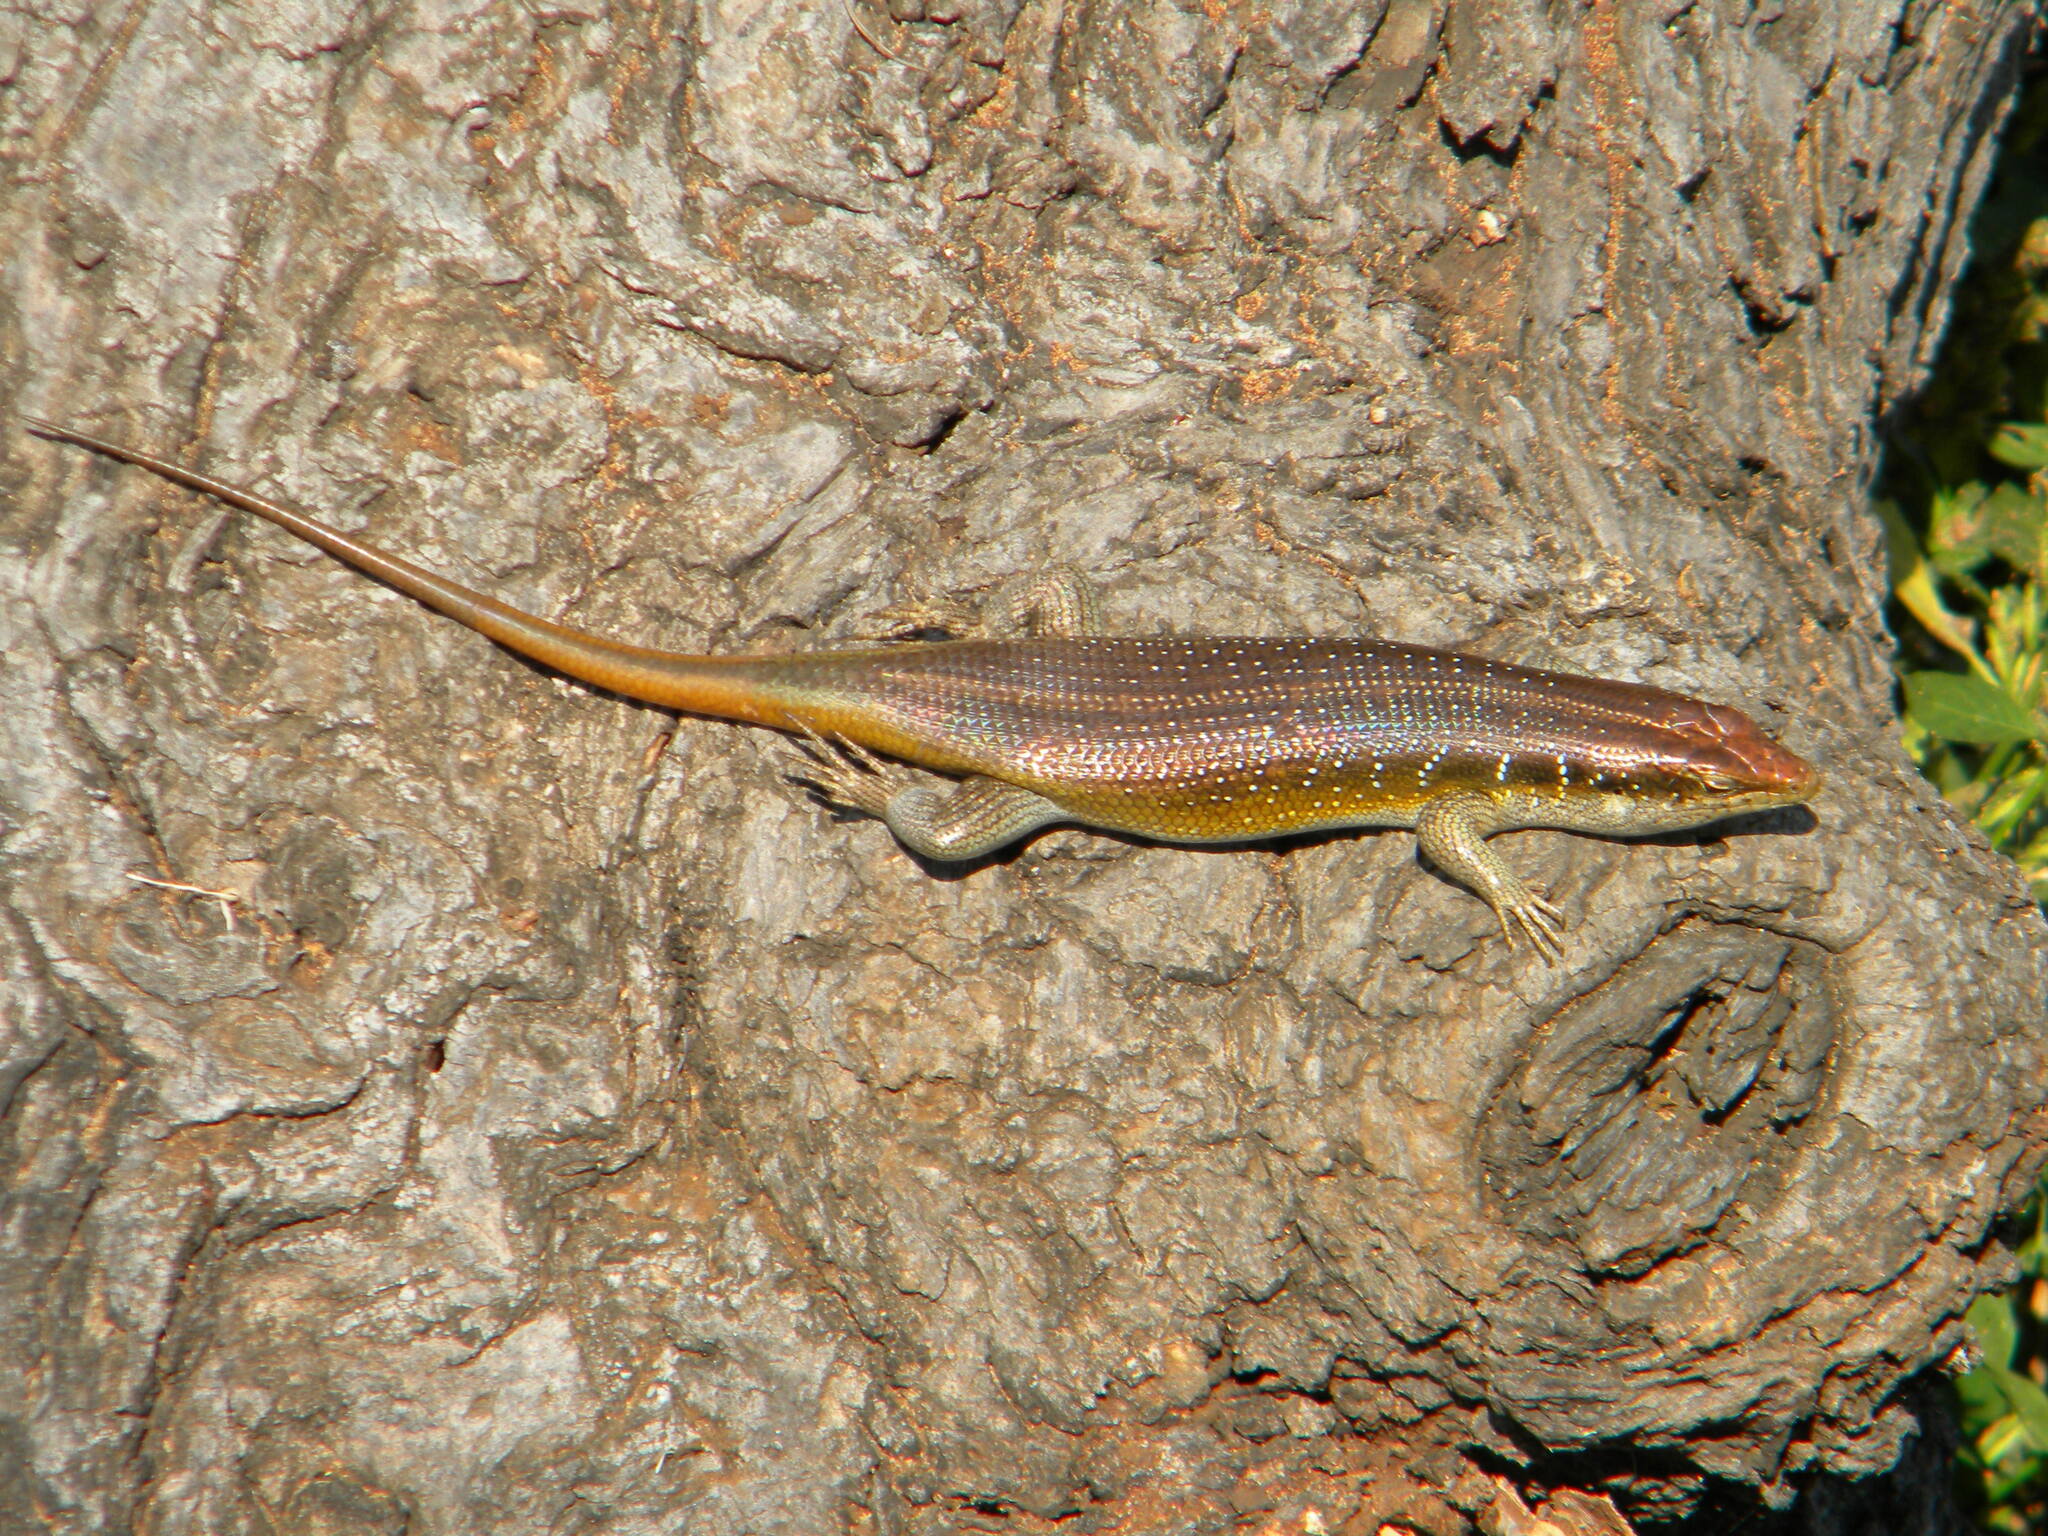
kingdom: Animalia
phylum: Chordata
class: Squamata
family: Scincidae
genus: Trachylepis
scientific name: Trachylepis margaritifera
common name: Rainbow skink
